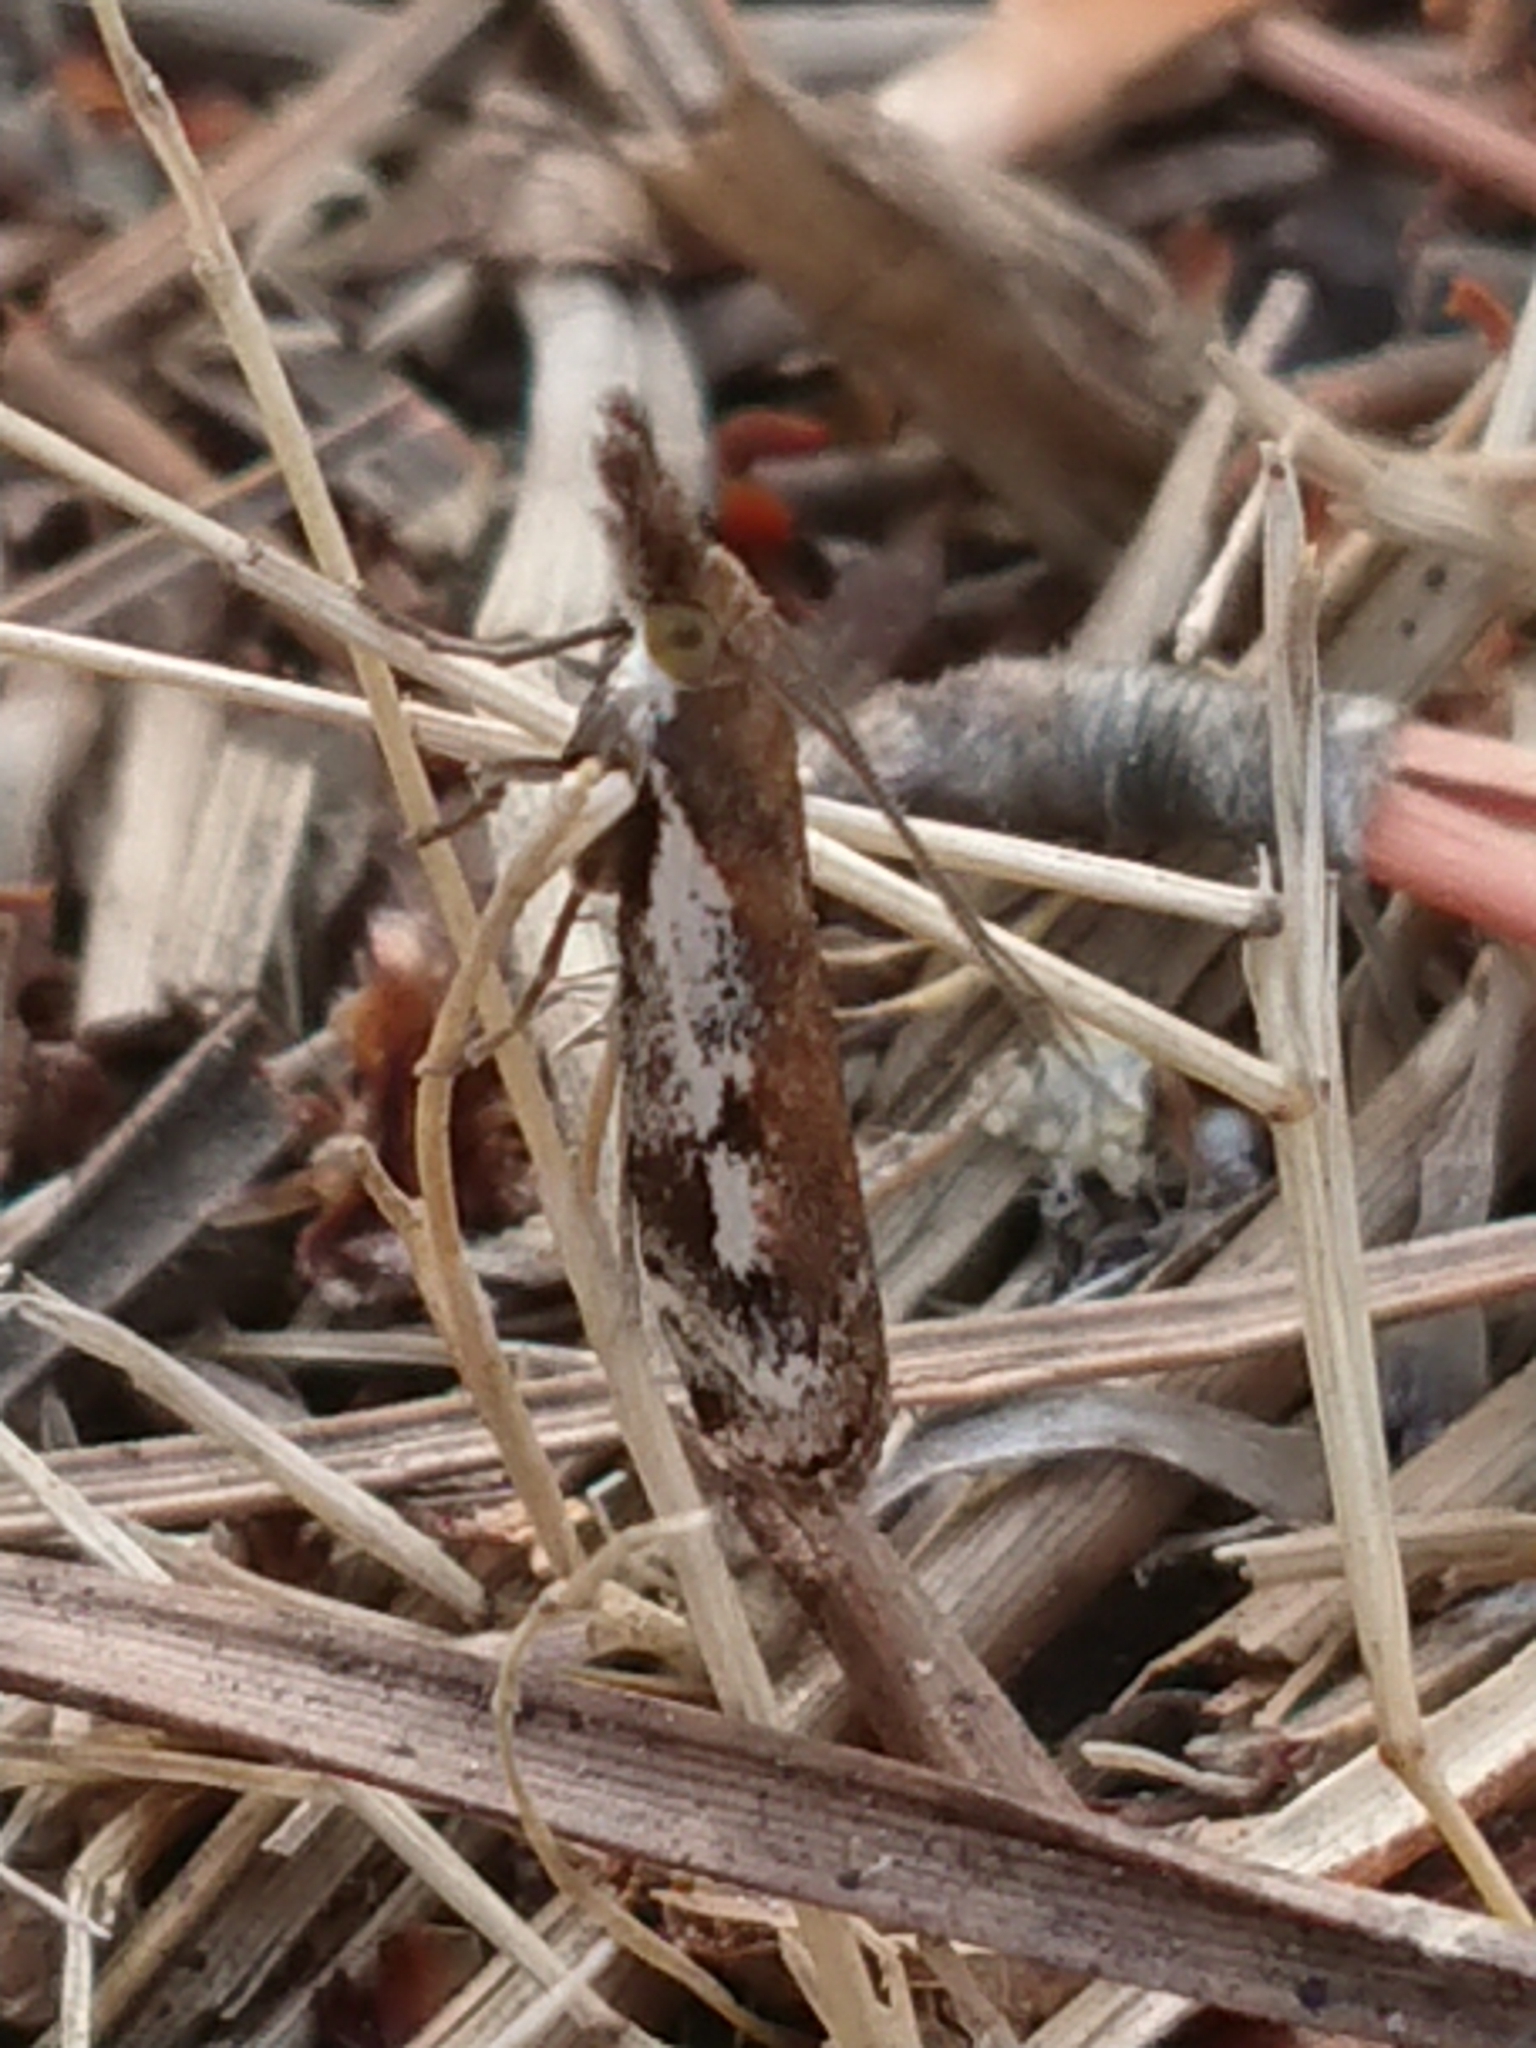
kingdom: Animalia
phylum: Arthropoda
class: Insecta
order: Lepidoptera
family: Crambidae
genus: Orocrambus
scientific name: Orocrambus vulgaris
